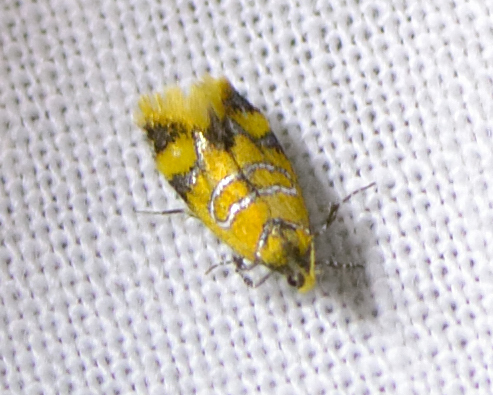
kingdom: Animalia
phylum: Arthropoda
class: Insecta
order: Lepidoptera
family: Oecophoridae
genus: Schiffermuelleria
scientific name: Schiffermuelleria procerella
